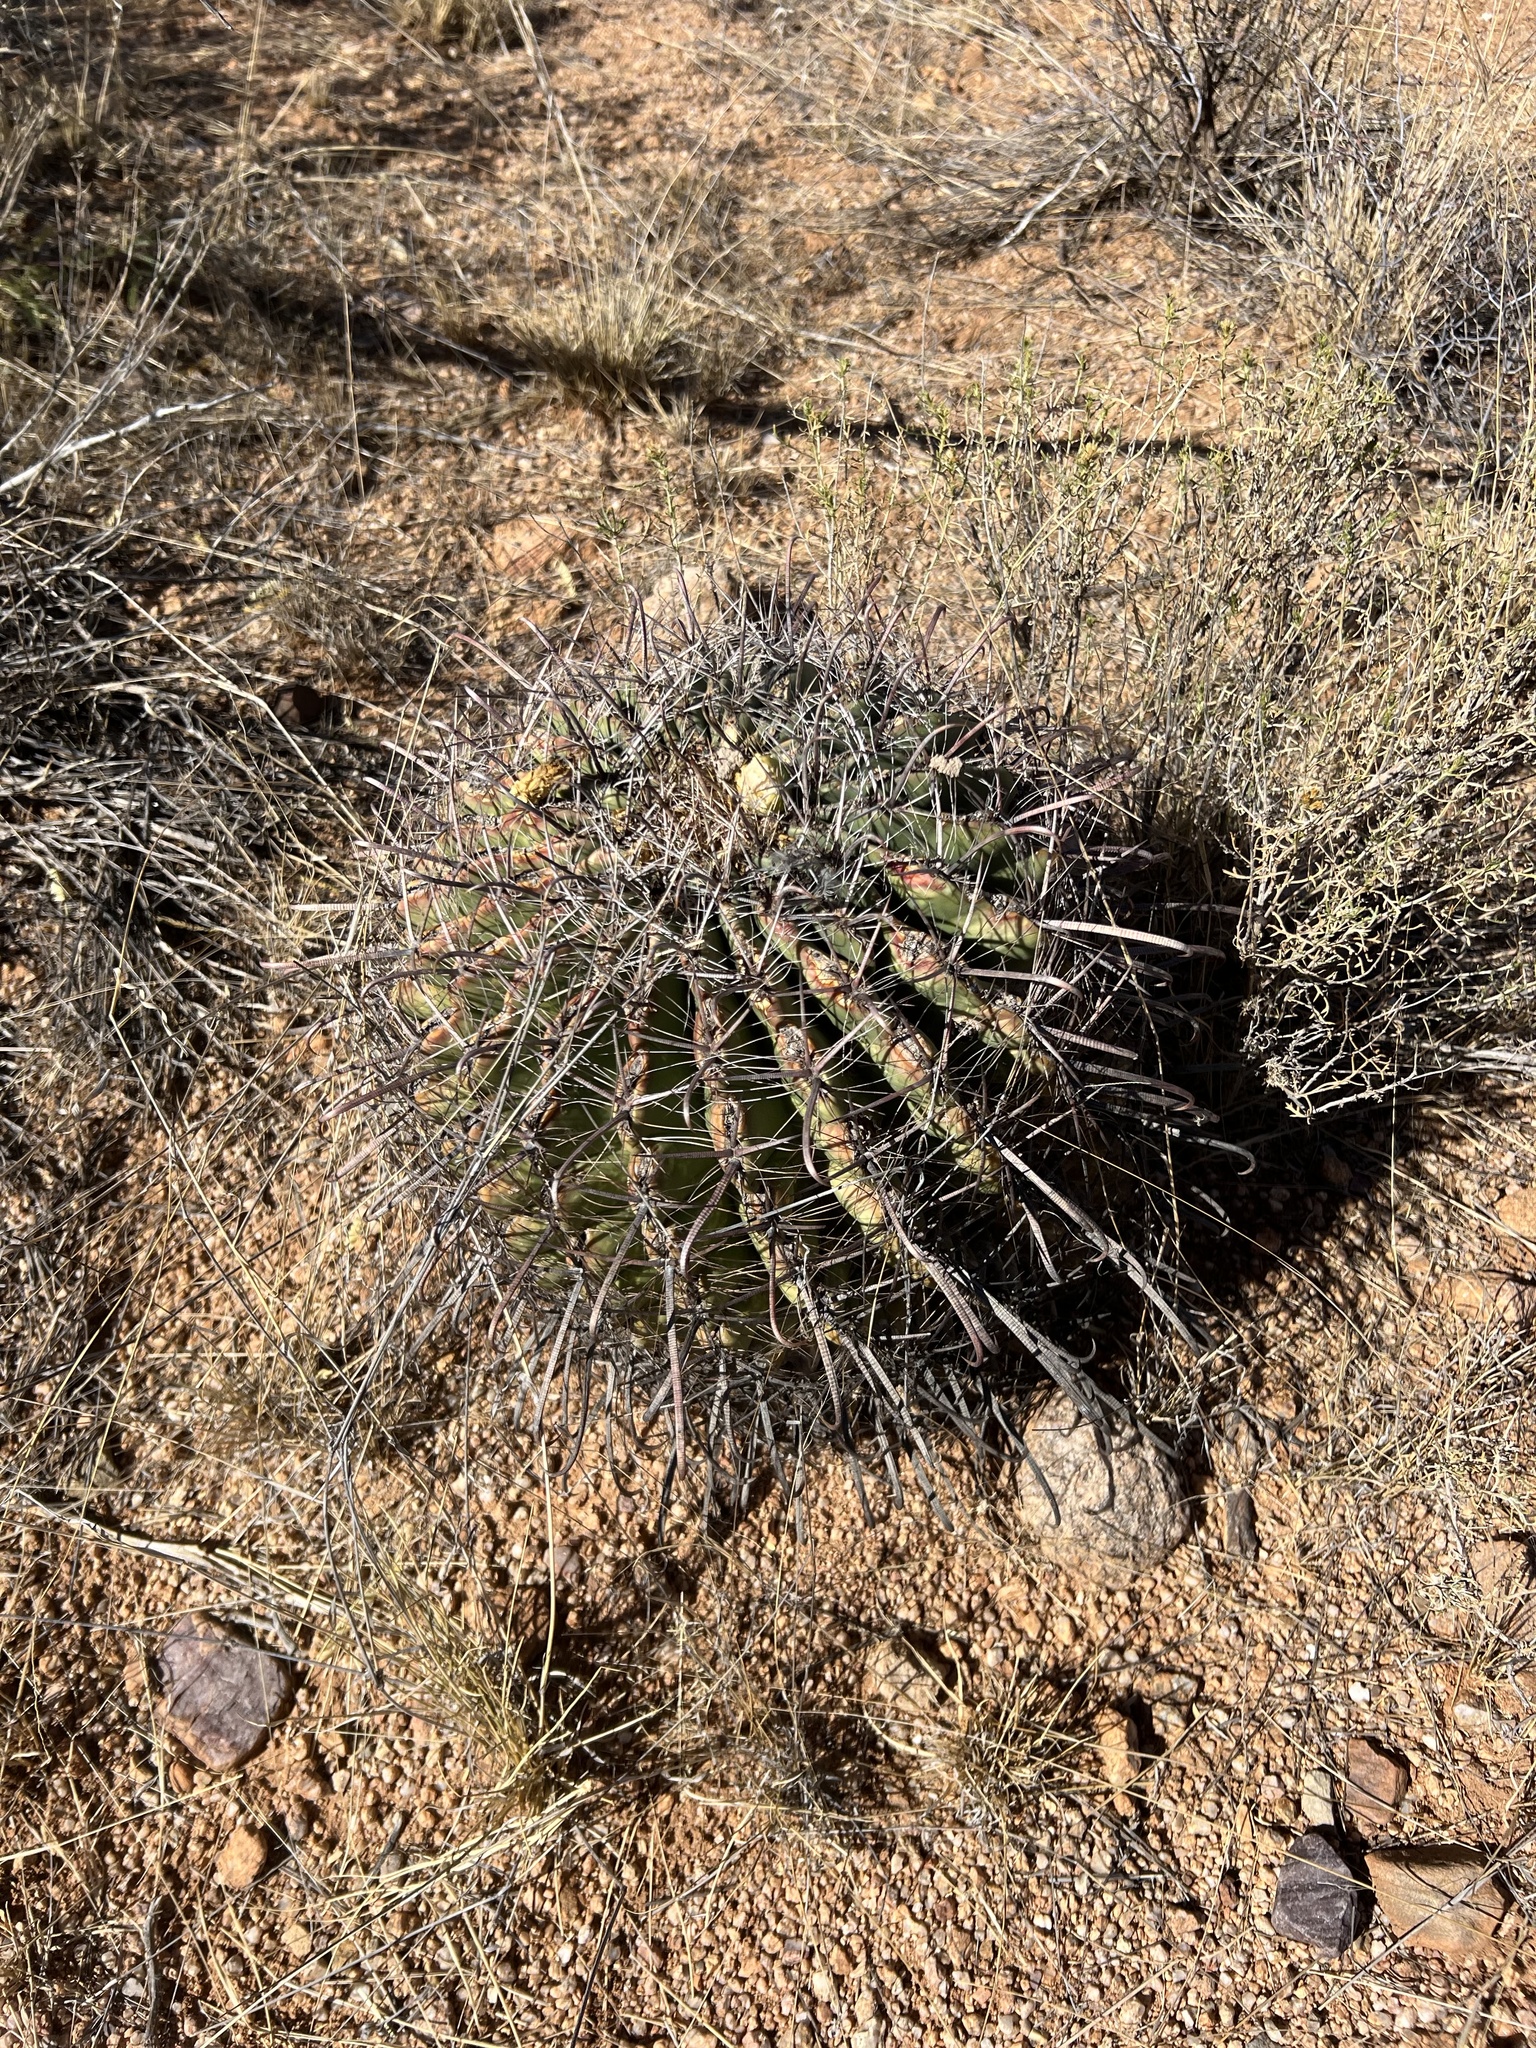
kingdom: Plantae
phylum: Tracheophyta
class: Magnoliopsida
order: Caryophyllales
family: Cactaceae
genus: Ferocactus
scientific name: Ferocactus wislizeni
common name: Candy barrel cactus
